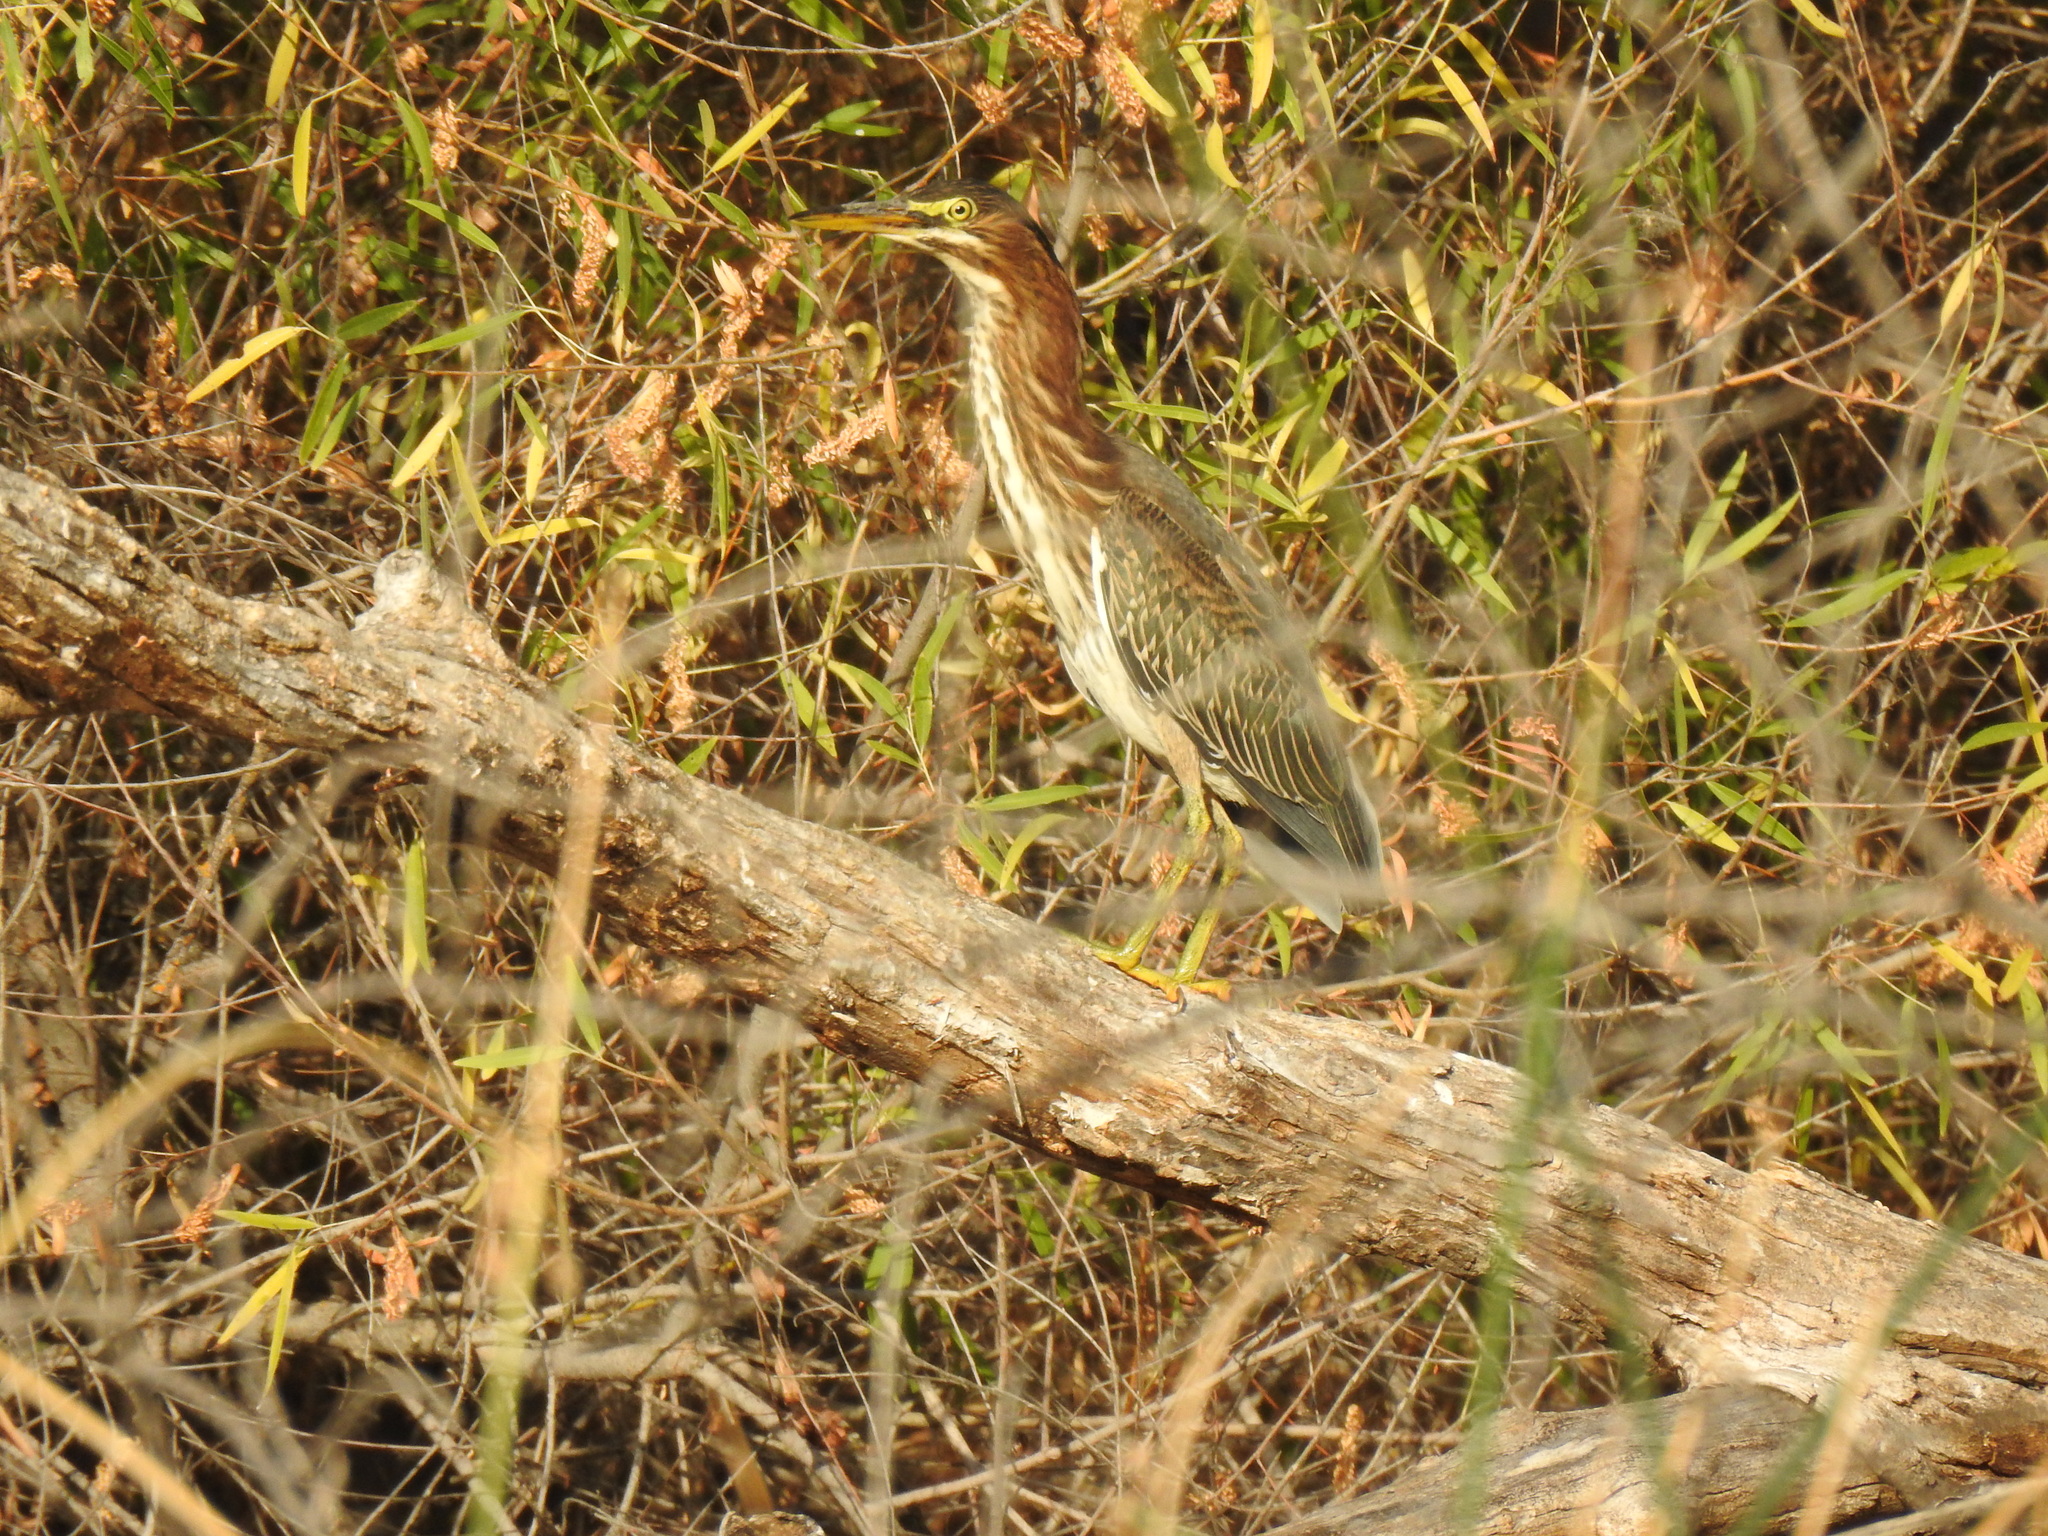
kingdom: Animalia
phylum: Chordata
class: Aves
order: Pelecaniformes
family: Ardeidae
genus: Butorides
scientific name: Butorides virescens
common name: Green heron
